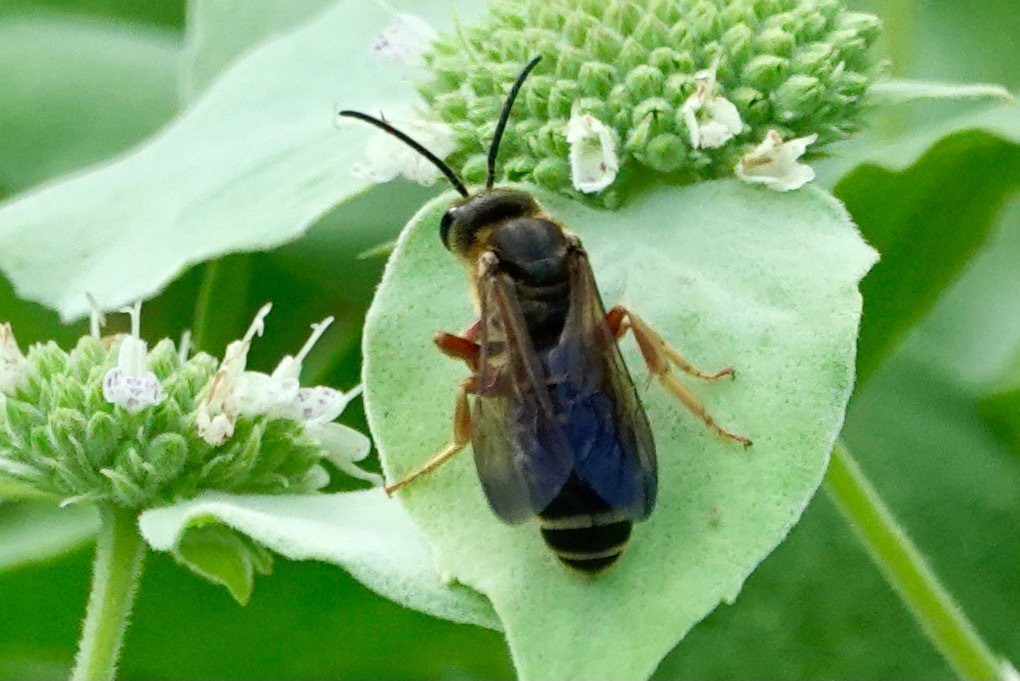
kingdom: Animalia
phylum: Arthropoda
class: Insecta
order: Hymenoptera
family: Halictidae
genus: Halictus
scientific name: Halictus parallelus
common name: Parallel-striped sweat bee
